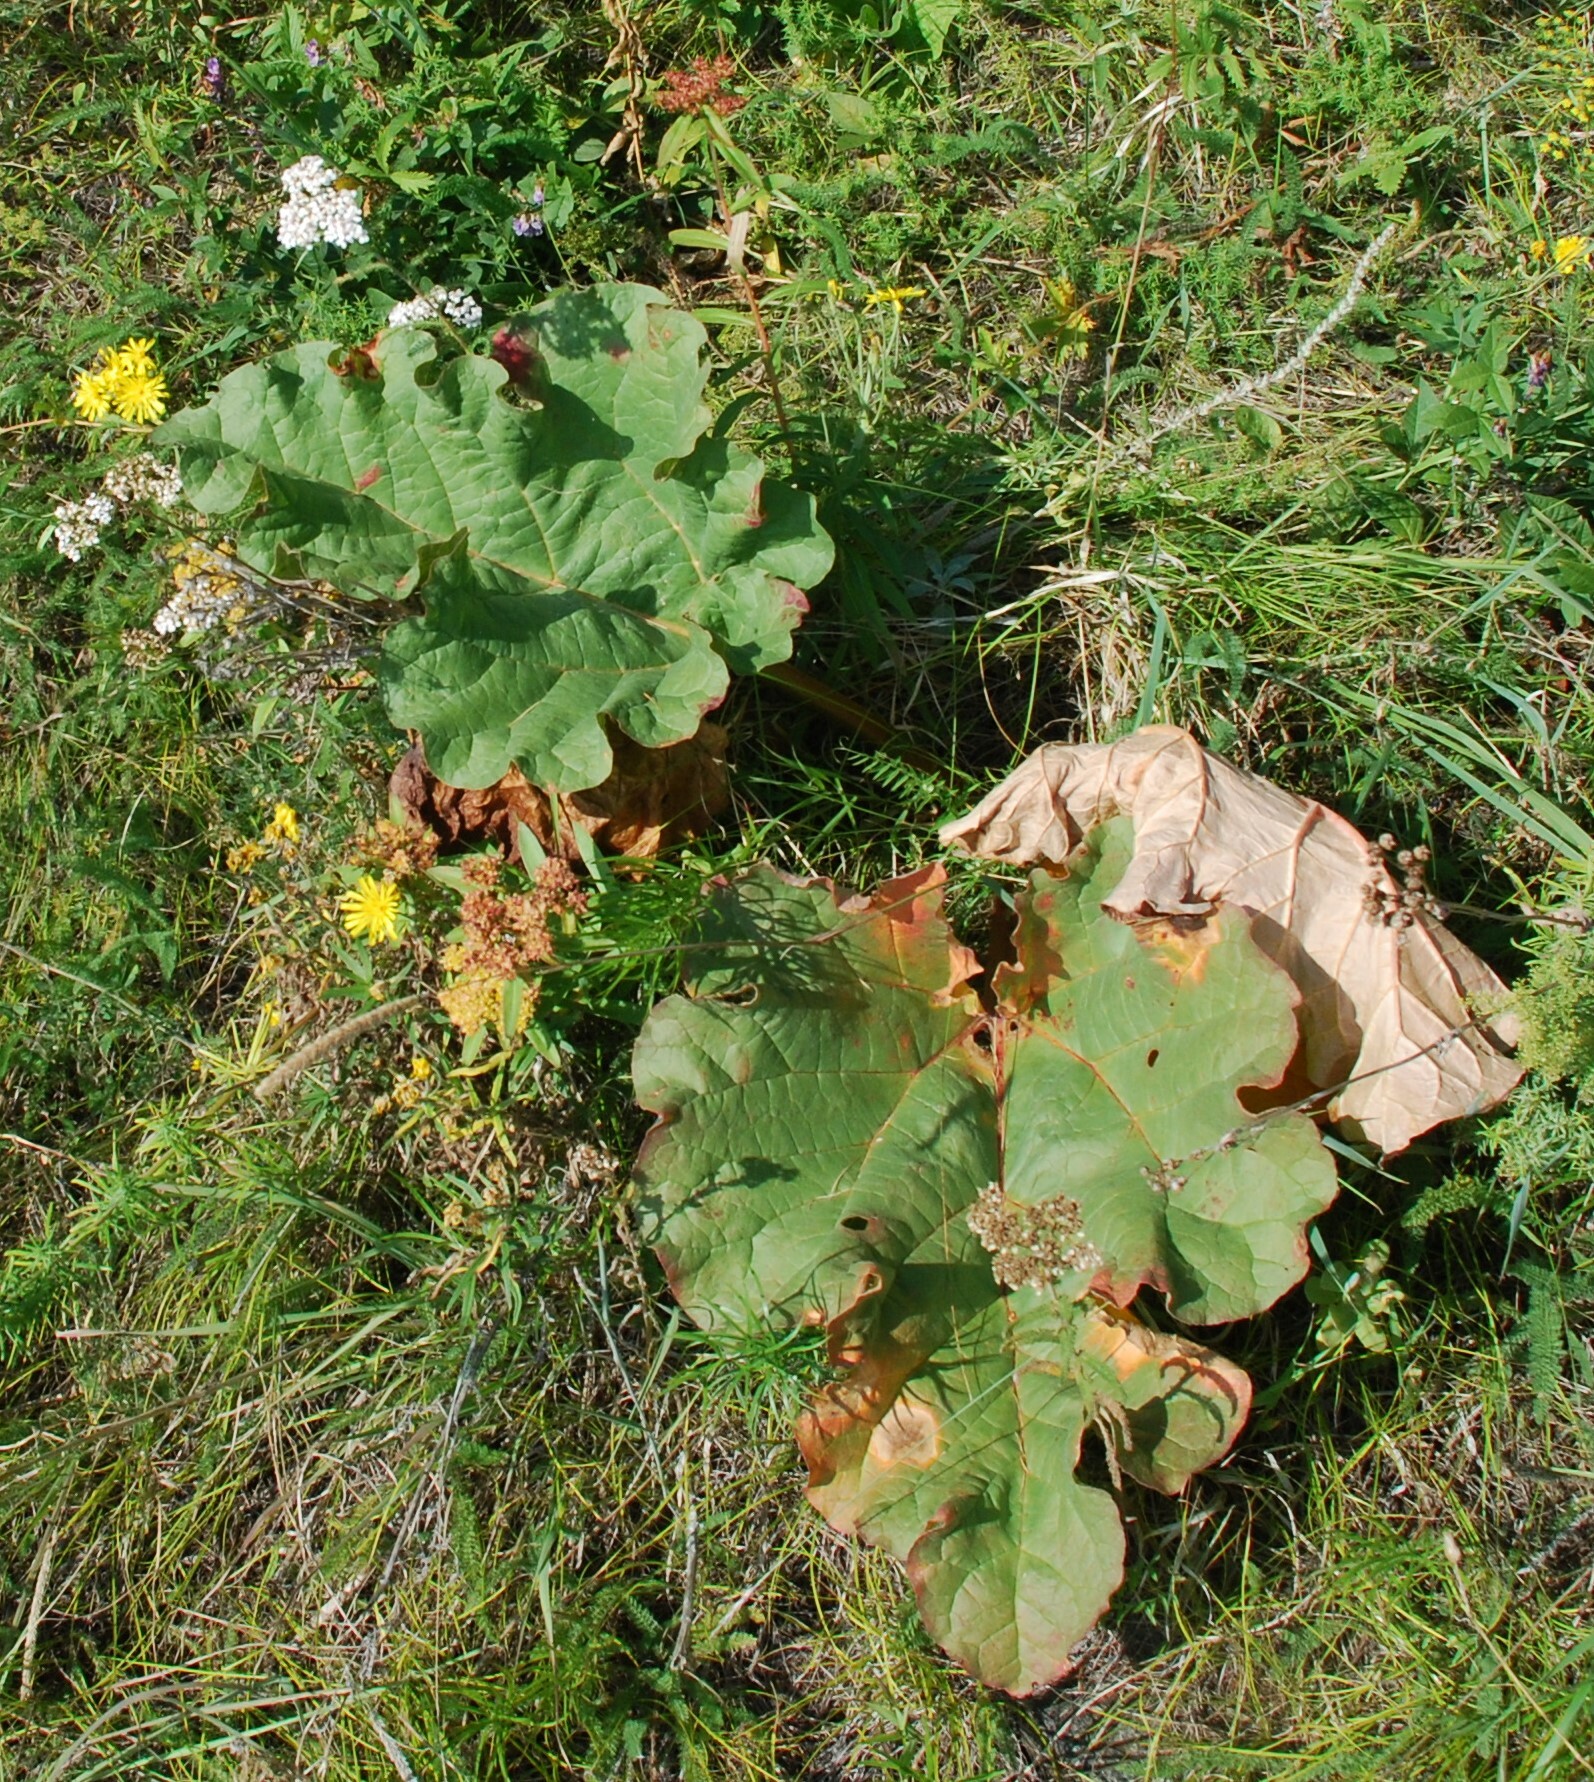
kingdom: Plantae
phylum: Tracheophyta
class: Magnoliopsida
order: Caryophyllales
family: Polygonaceae
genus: Rheum
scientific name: Rheum compactum
